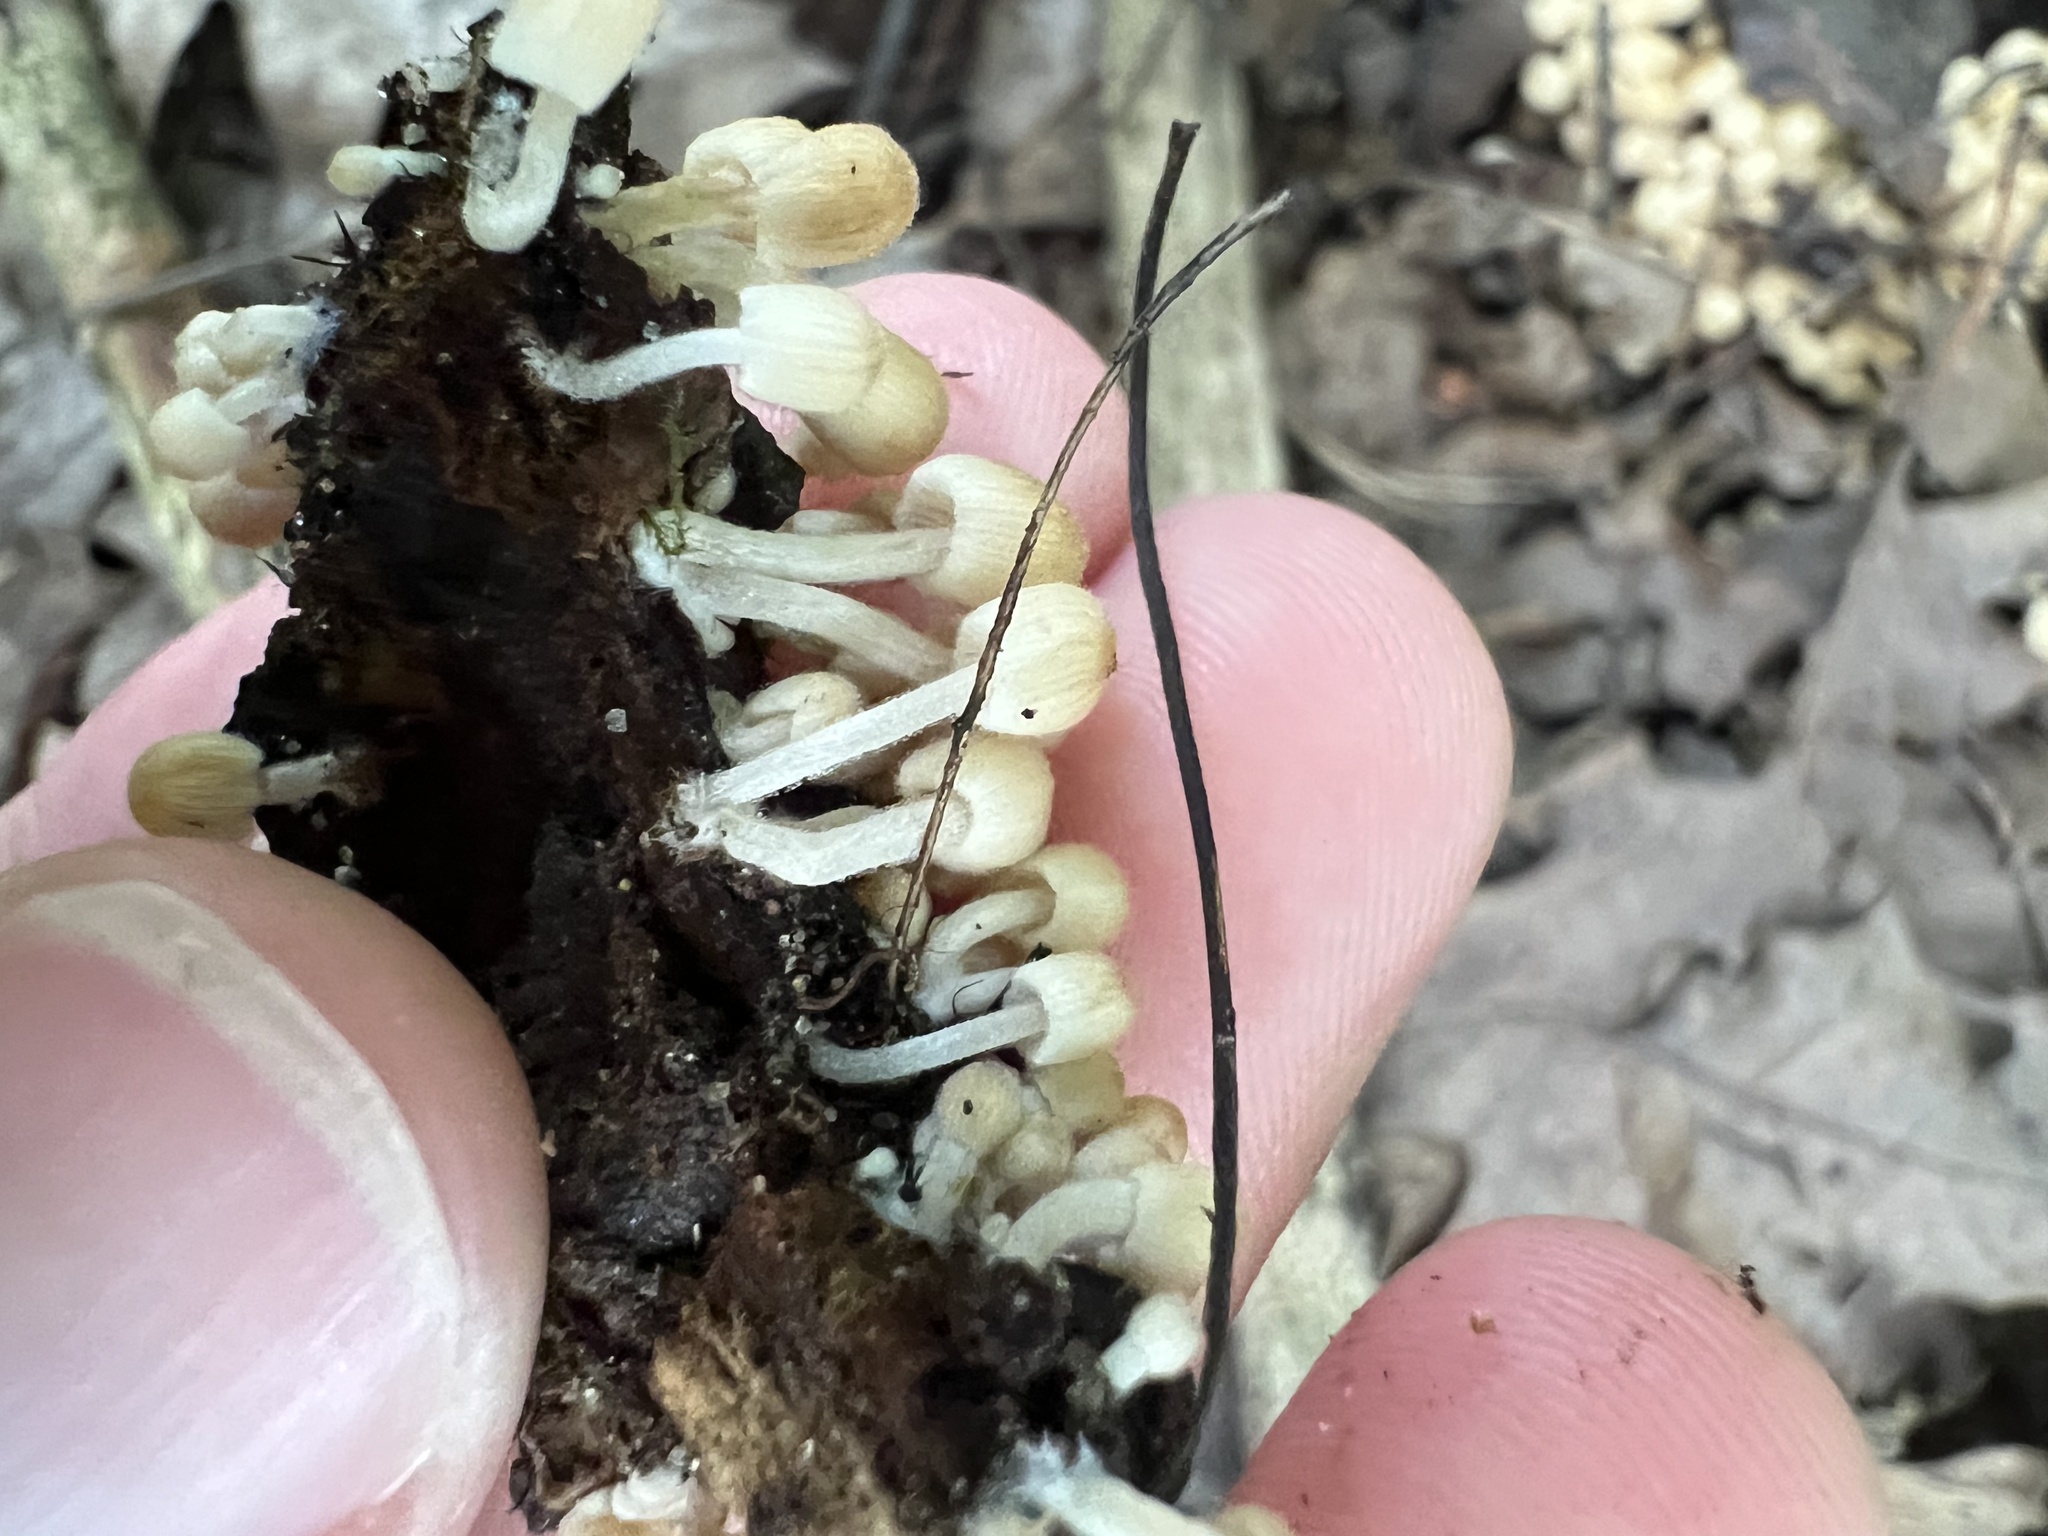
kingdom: Fungi
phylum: Basidiomycota
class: Agaricomycetes
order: Agaricales
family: Psathyrellaceae
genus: Coprinellus
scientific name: Coprinellus disseminatus
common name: Fairies' bonnets
